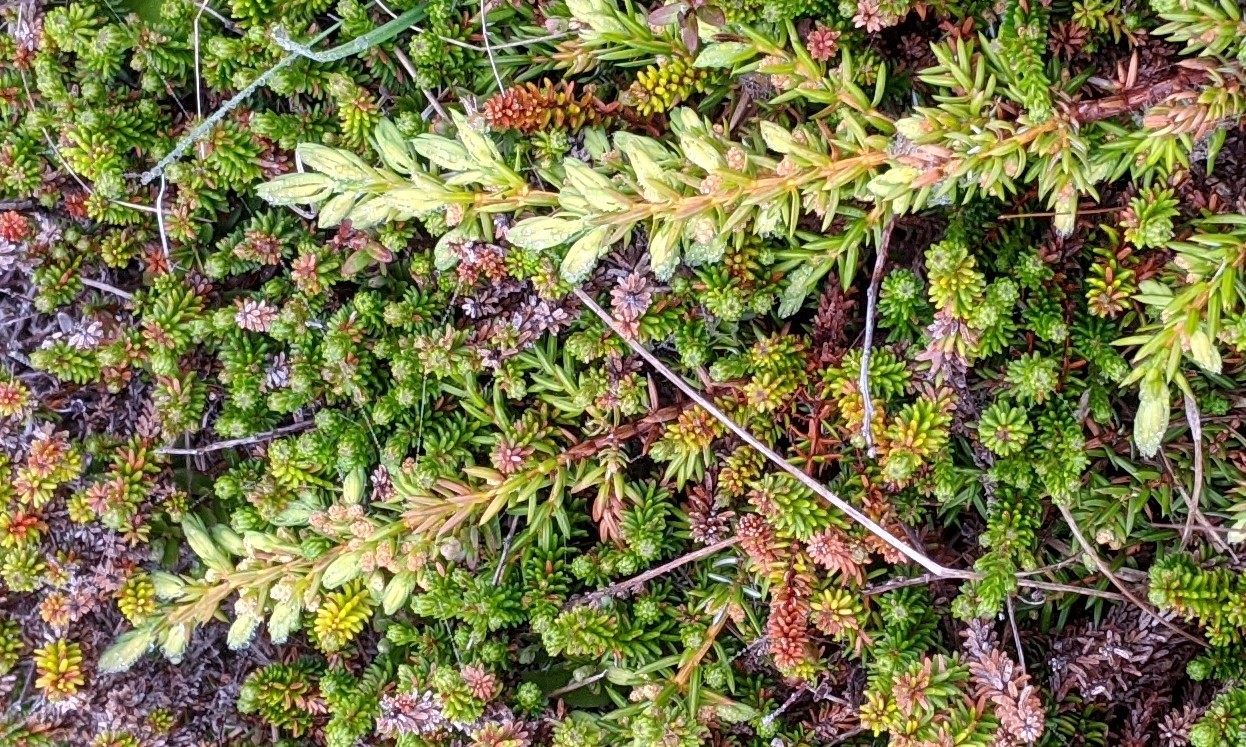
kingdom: Plantae
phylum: Tracheophyta
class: Pinopsida
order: Pinales
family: Cupressaceae
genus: Juniperus
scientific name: Juniperus communis
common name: Common juniper
